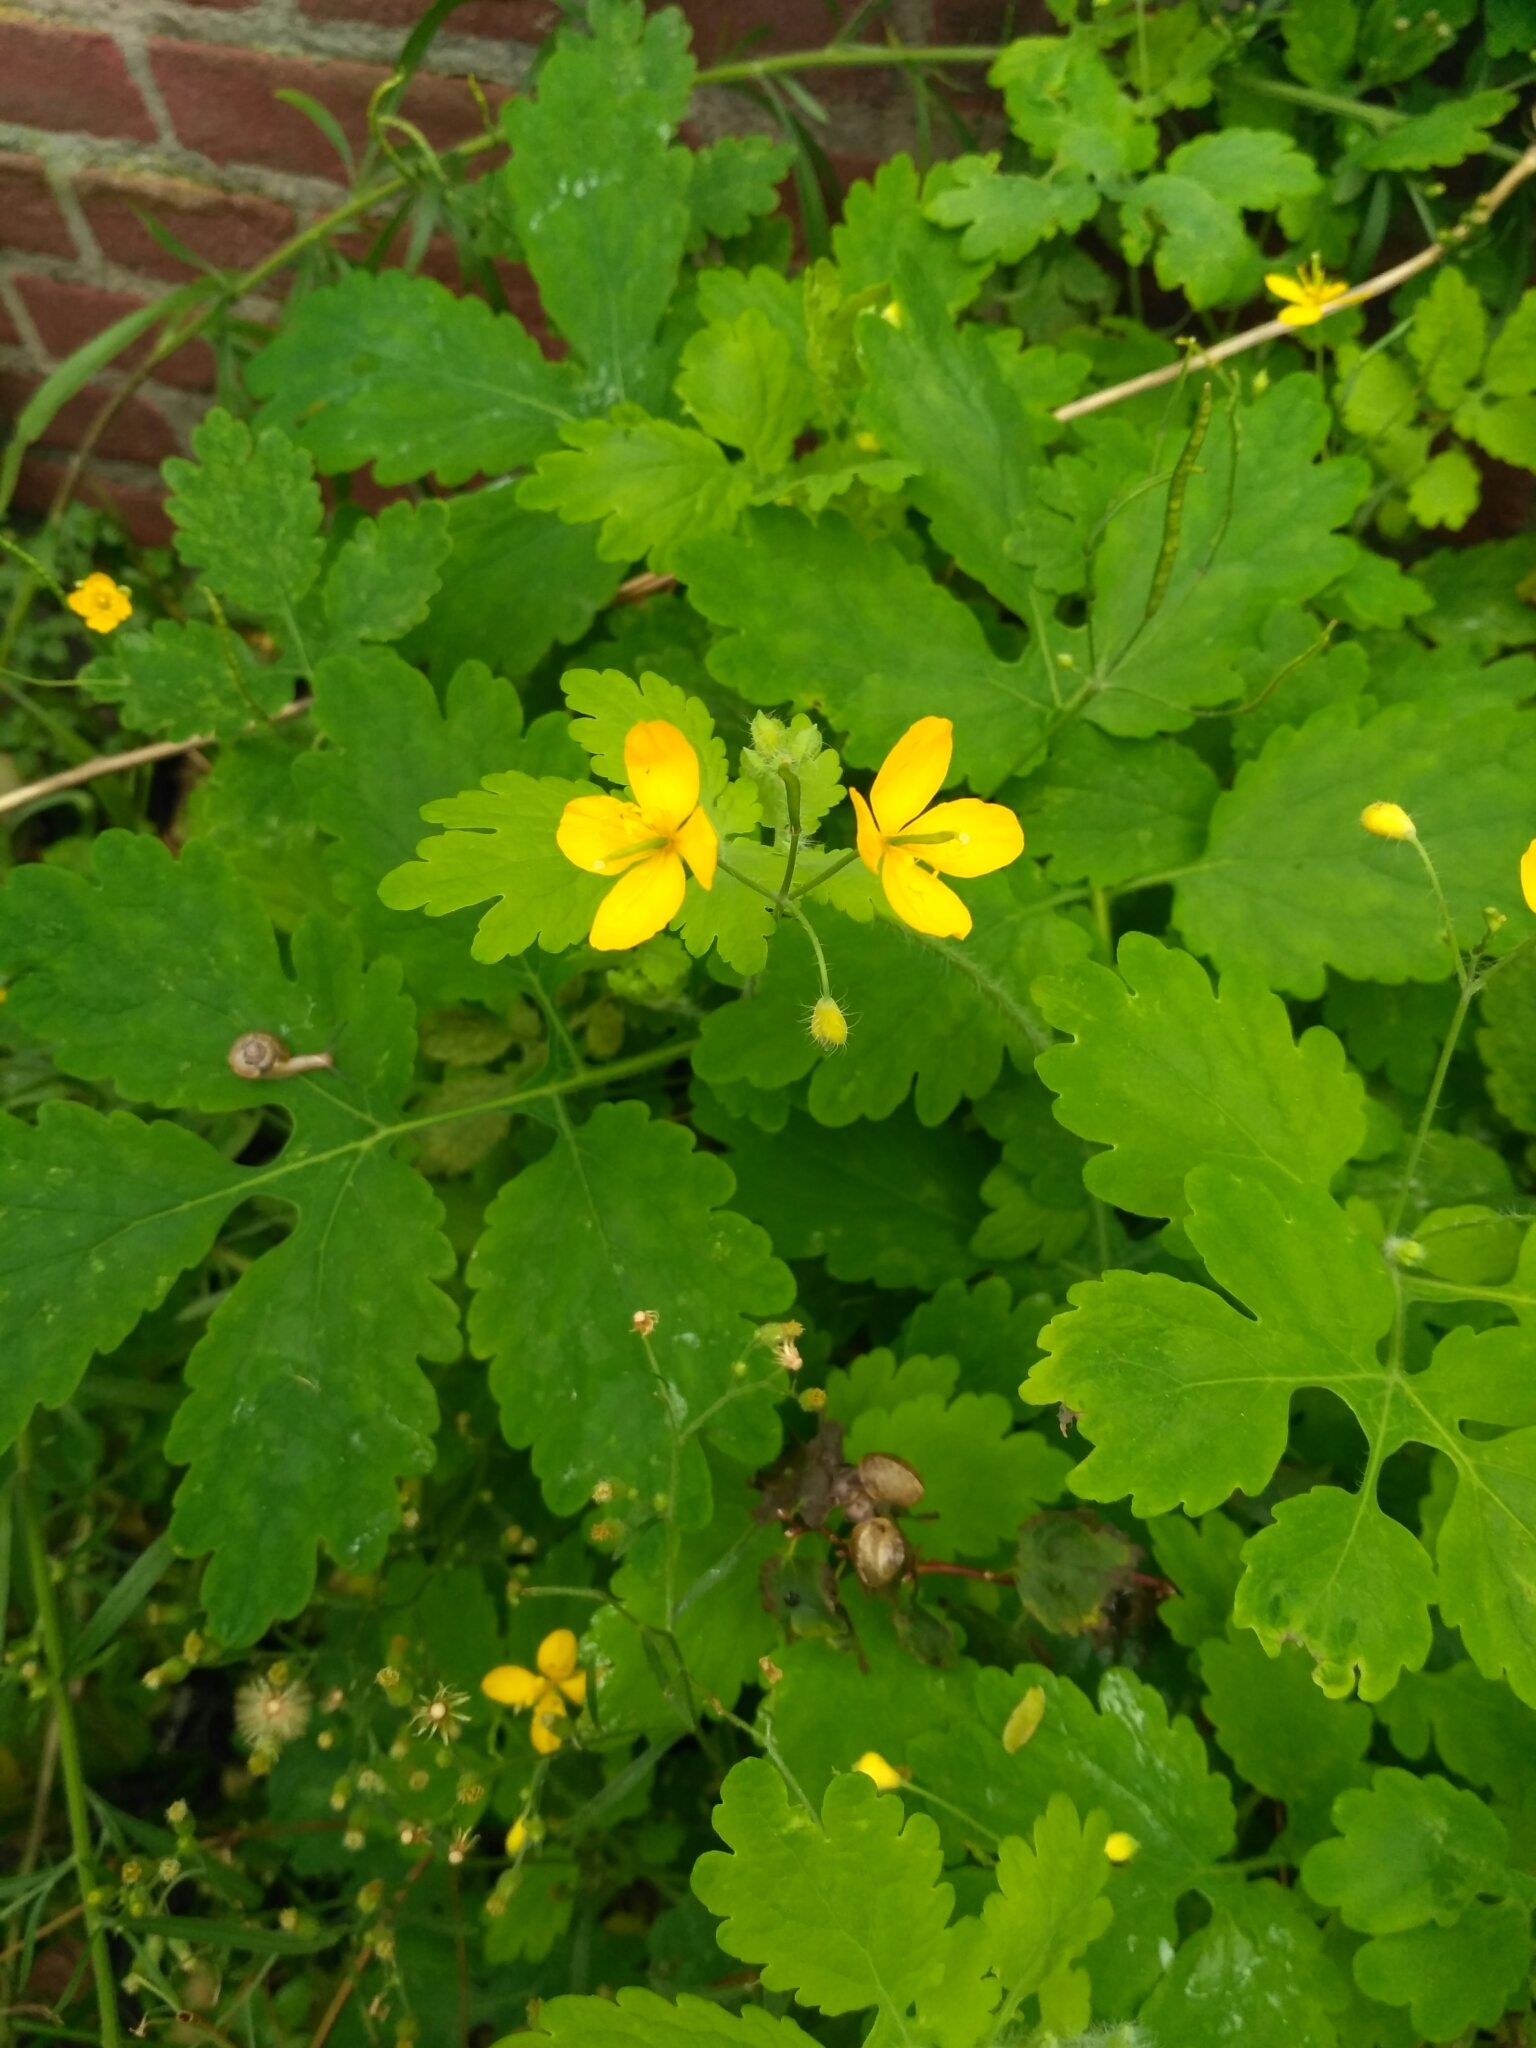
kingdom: Plantae
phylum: Tracheophyta
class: Magnoliopsida
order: Ranunculales
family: Papaveraceae
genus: Chelidonium
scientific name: Chelidonium majus
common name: Greater celandine
